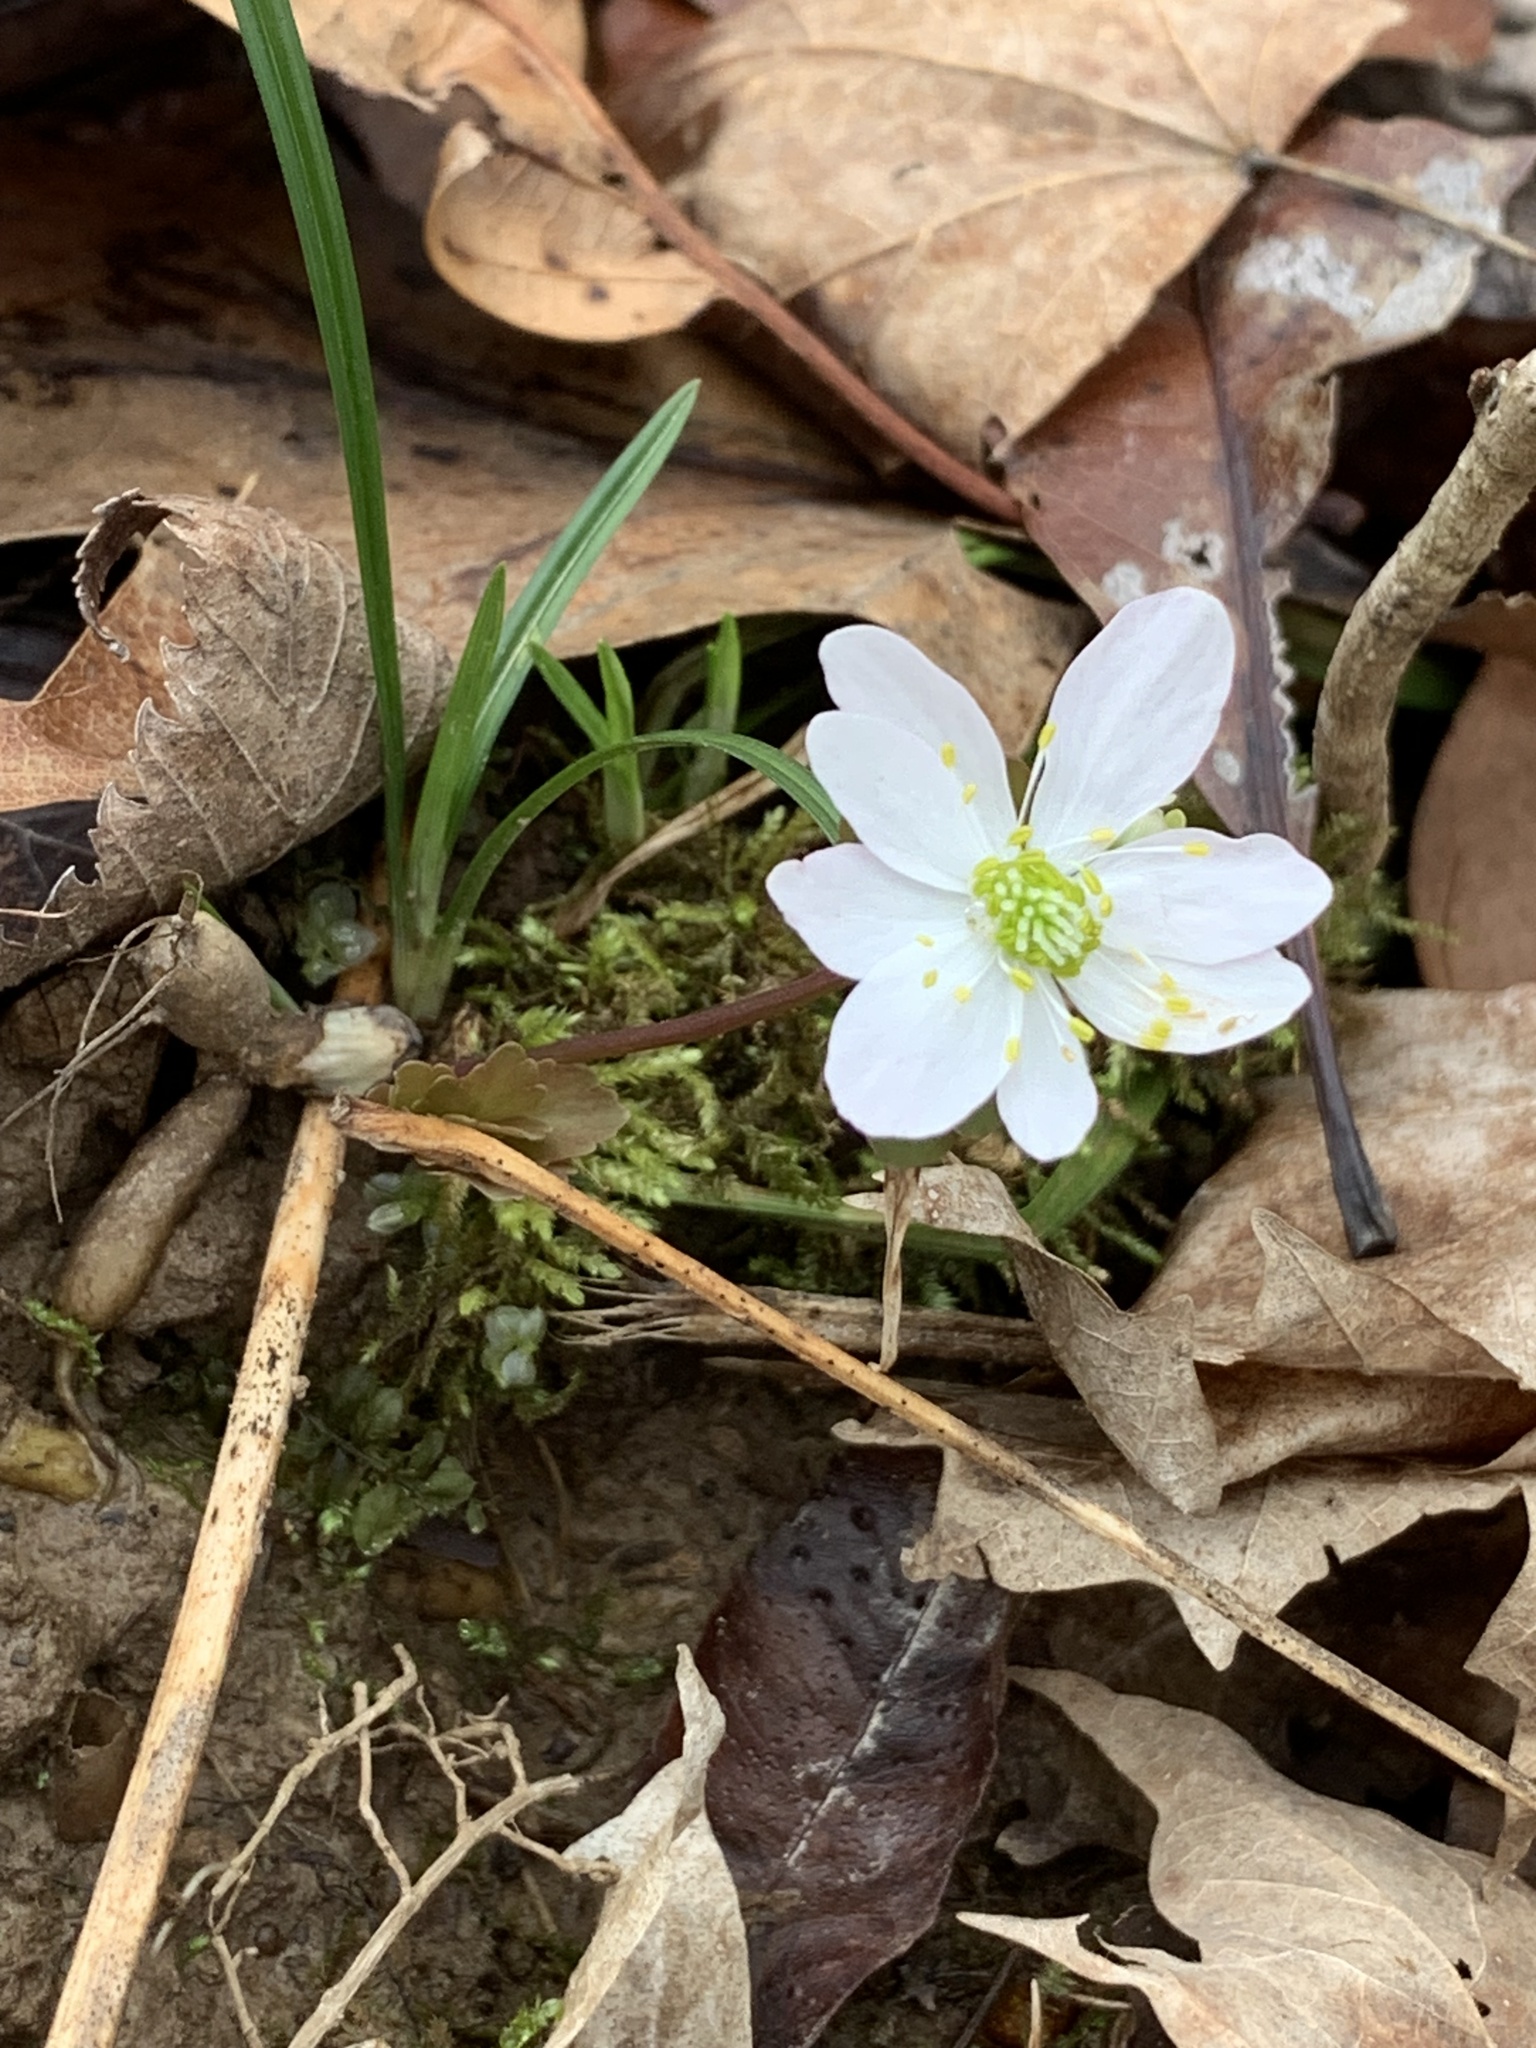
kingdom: Plantae
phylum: Tracheophyta
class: Magnoliopsida
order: Ranunculales
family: Ranunculaceae
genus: Thalictrum
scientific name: Thalictrum thalictroides
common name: Rue-anemone
